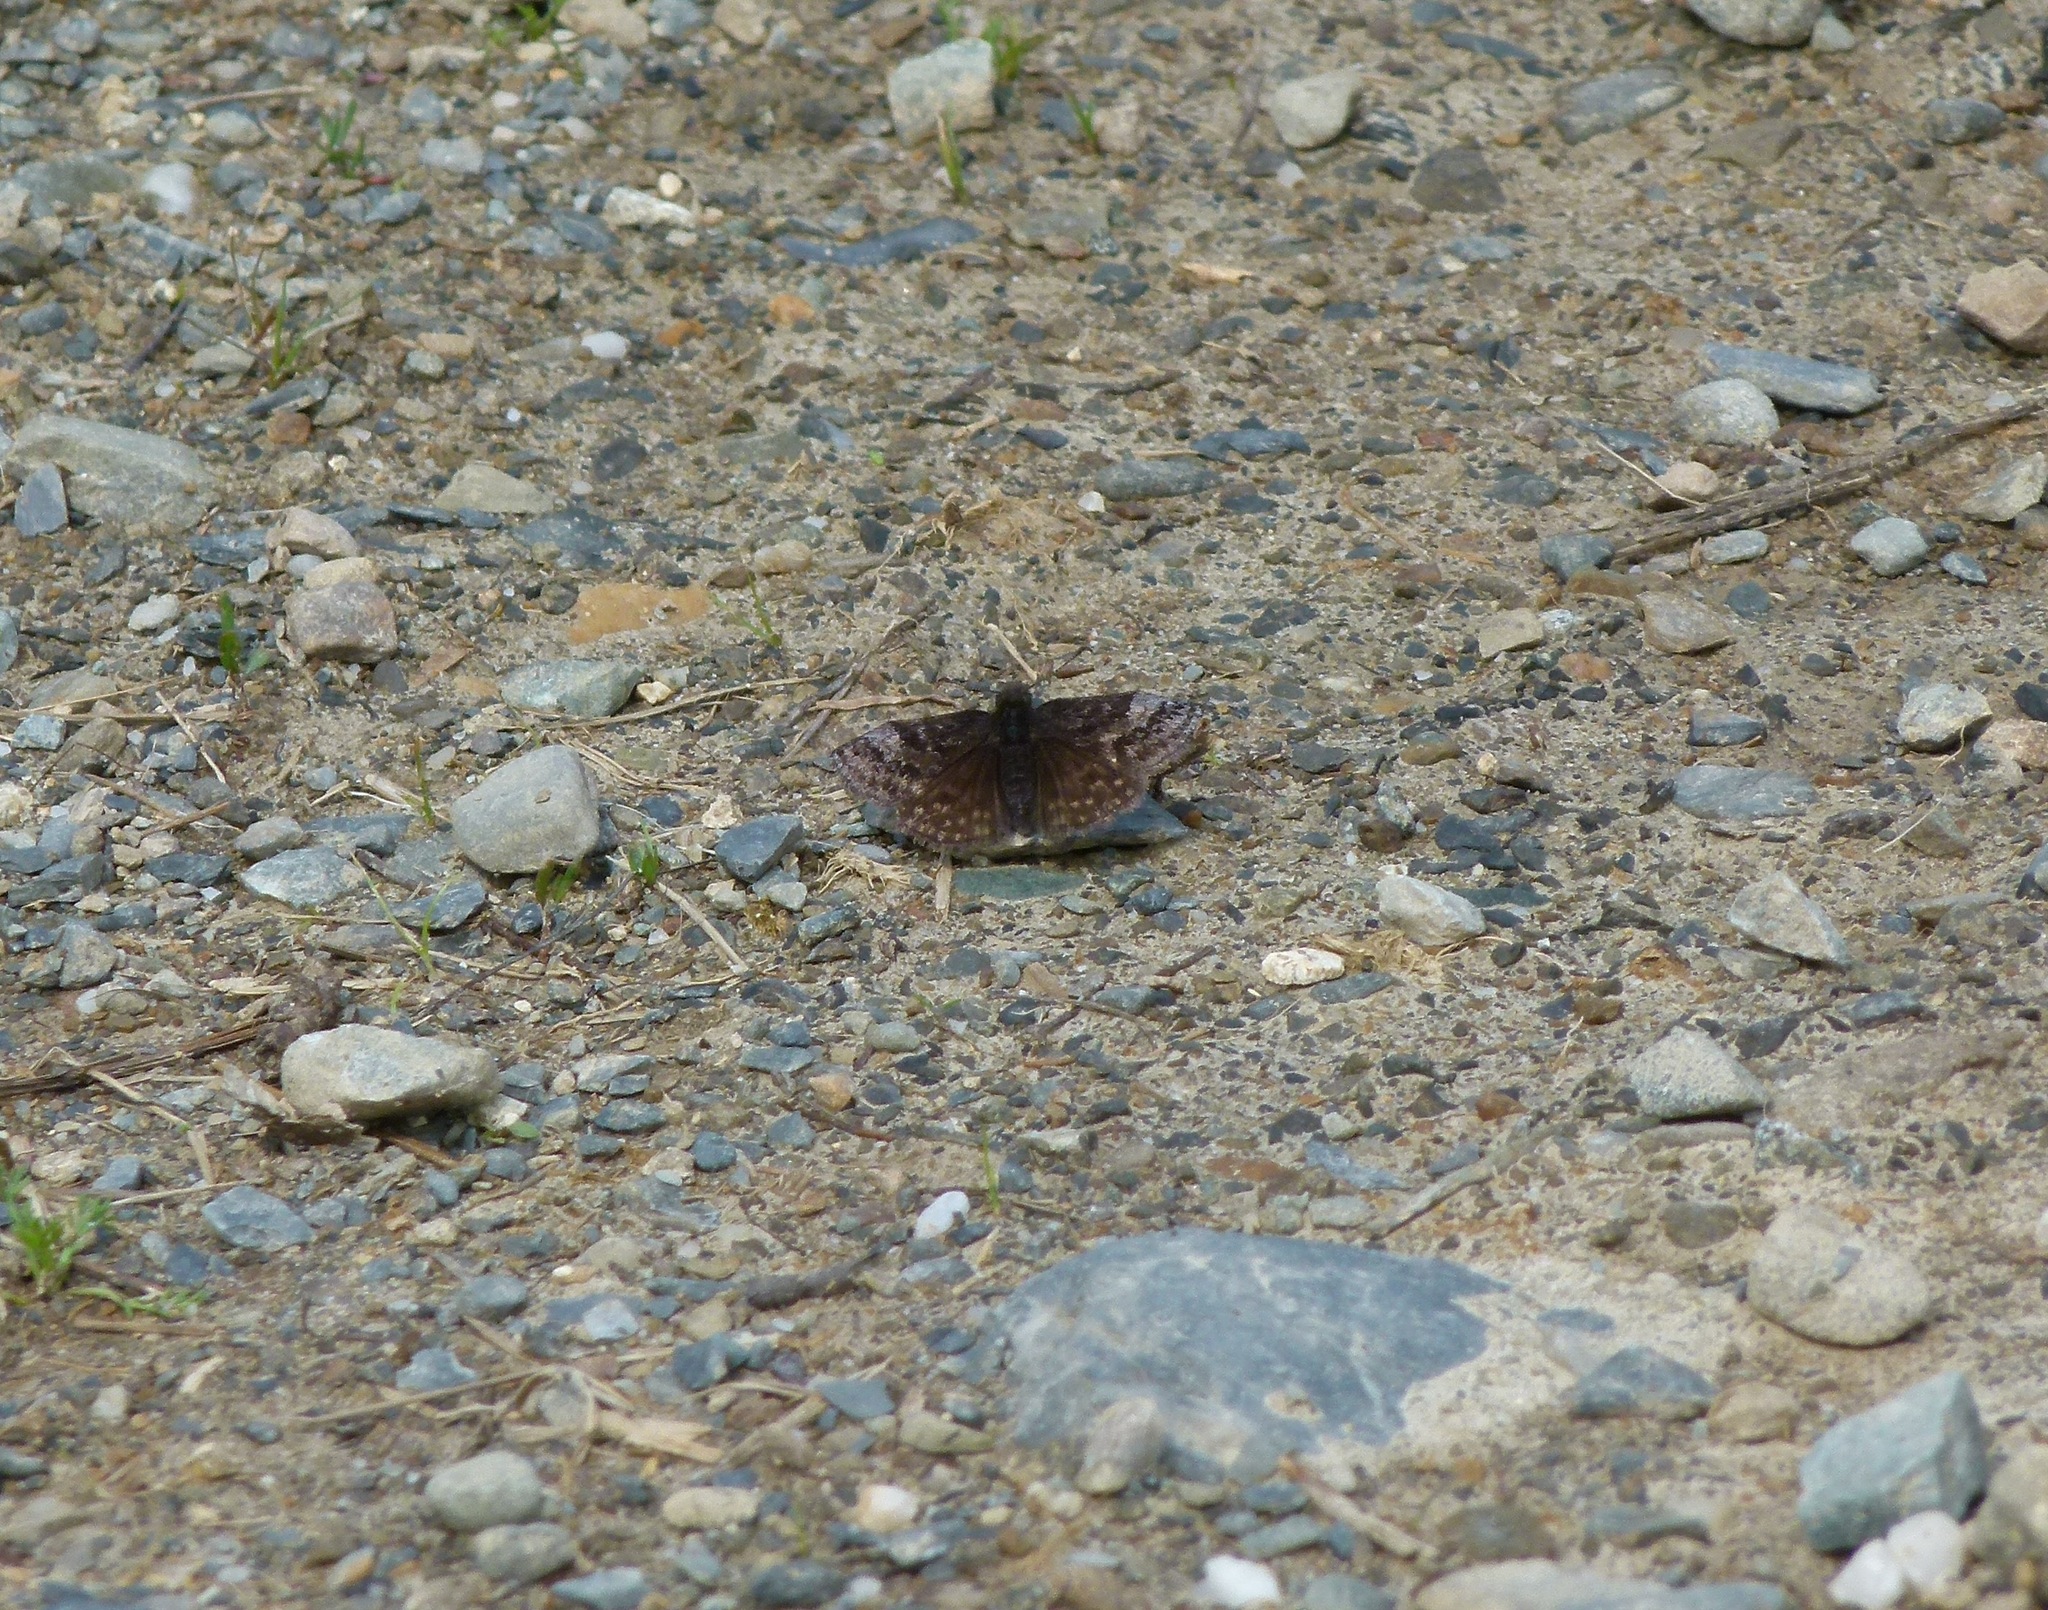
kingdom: Animalia
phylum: Arthropoda
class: Insecta
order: Lepidoptera
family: Hesperiidae
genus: Erynnis
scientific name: Erynnis icelus
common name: Dreamy duskywing
